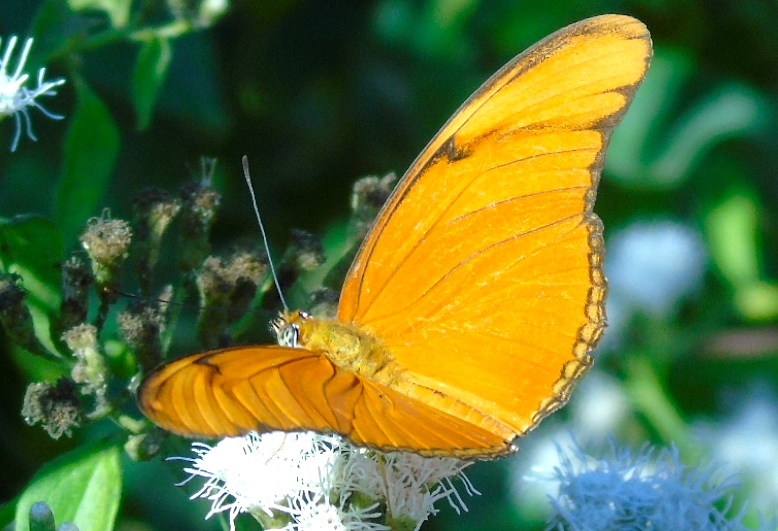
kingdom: Animalia
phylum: Arthropoda
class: Insecta
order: Lepidoptera
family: Nymphalidae
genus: Dryas
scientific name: Dryas iulia
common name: Flambeau
